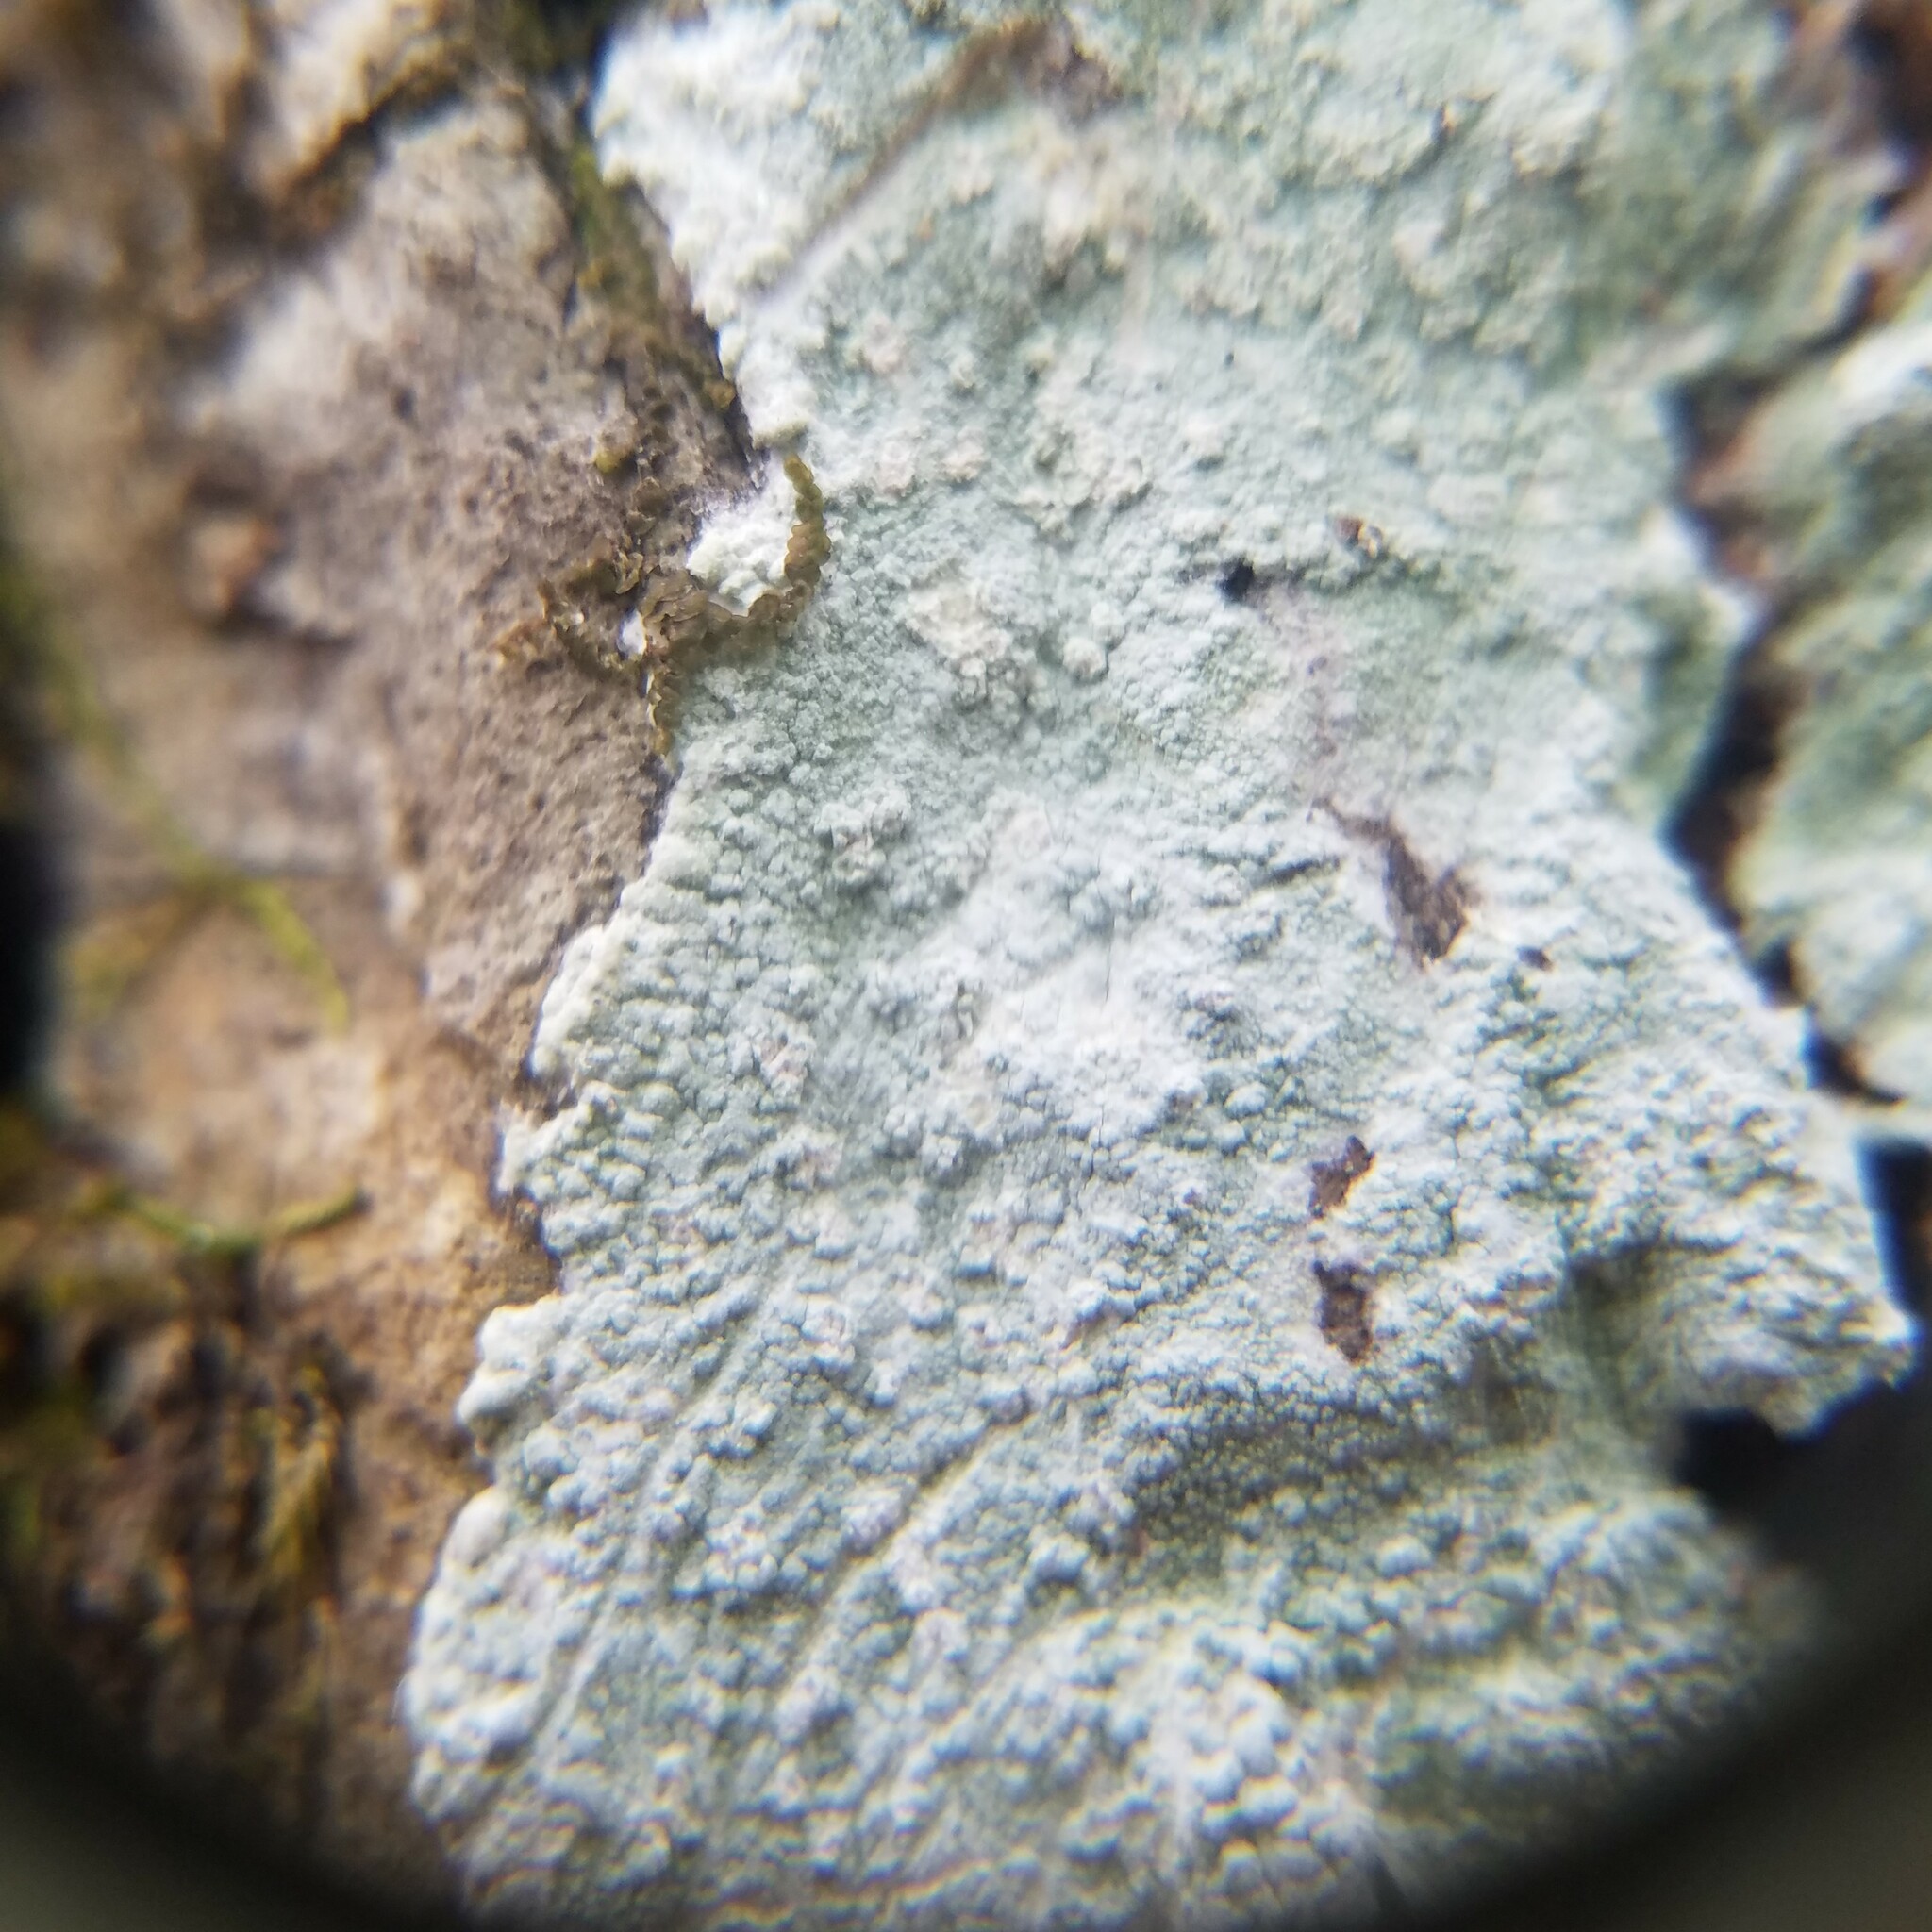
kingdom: Fungi
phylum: Ascomycota
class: Lecanoromycetes
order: Ostropales
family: Phlyctidaceae
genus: Phlyctis
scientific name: Phlyctis boliviensis
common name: Bark whitewash
